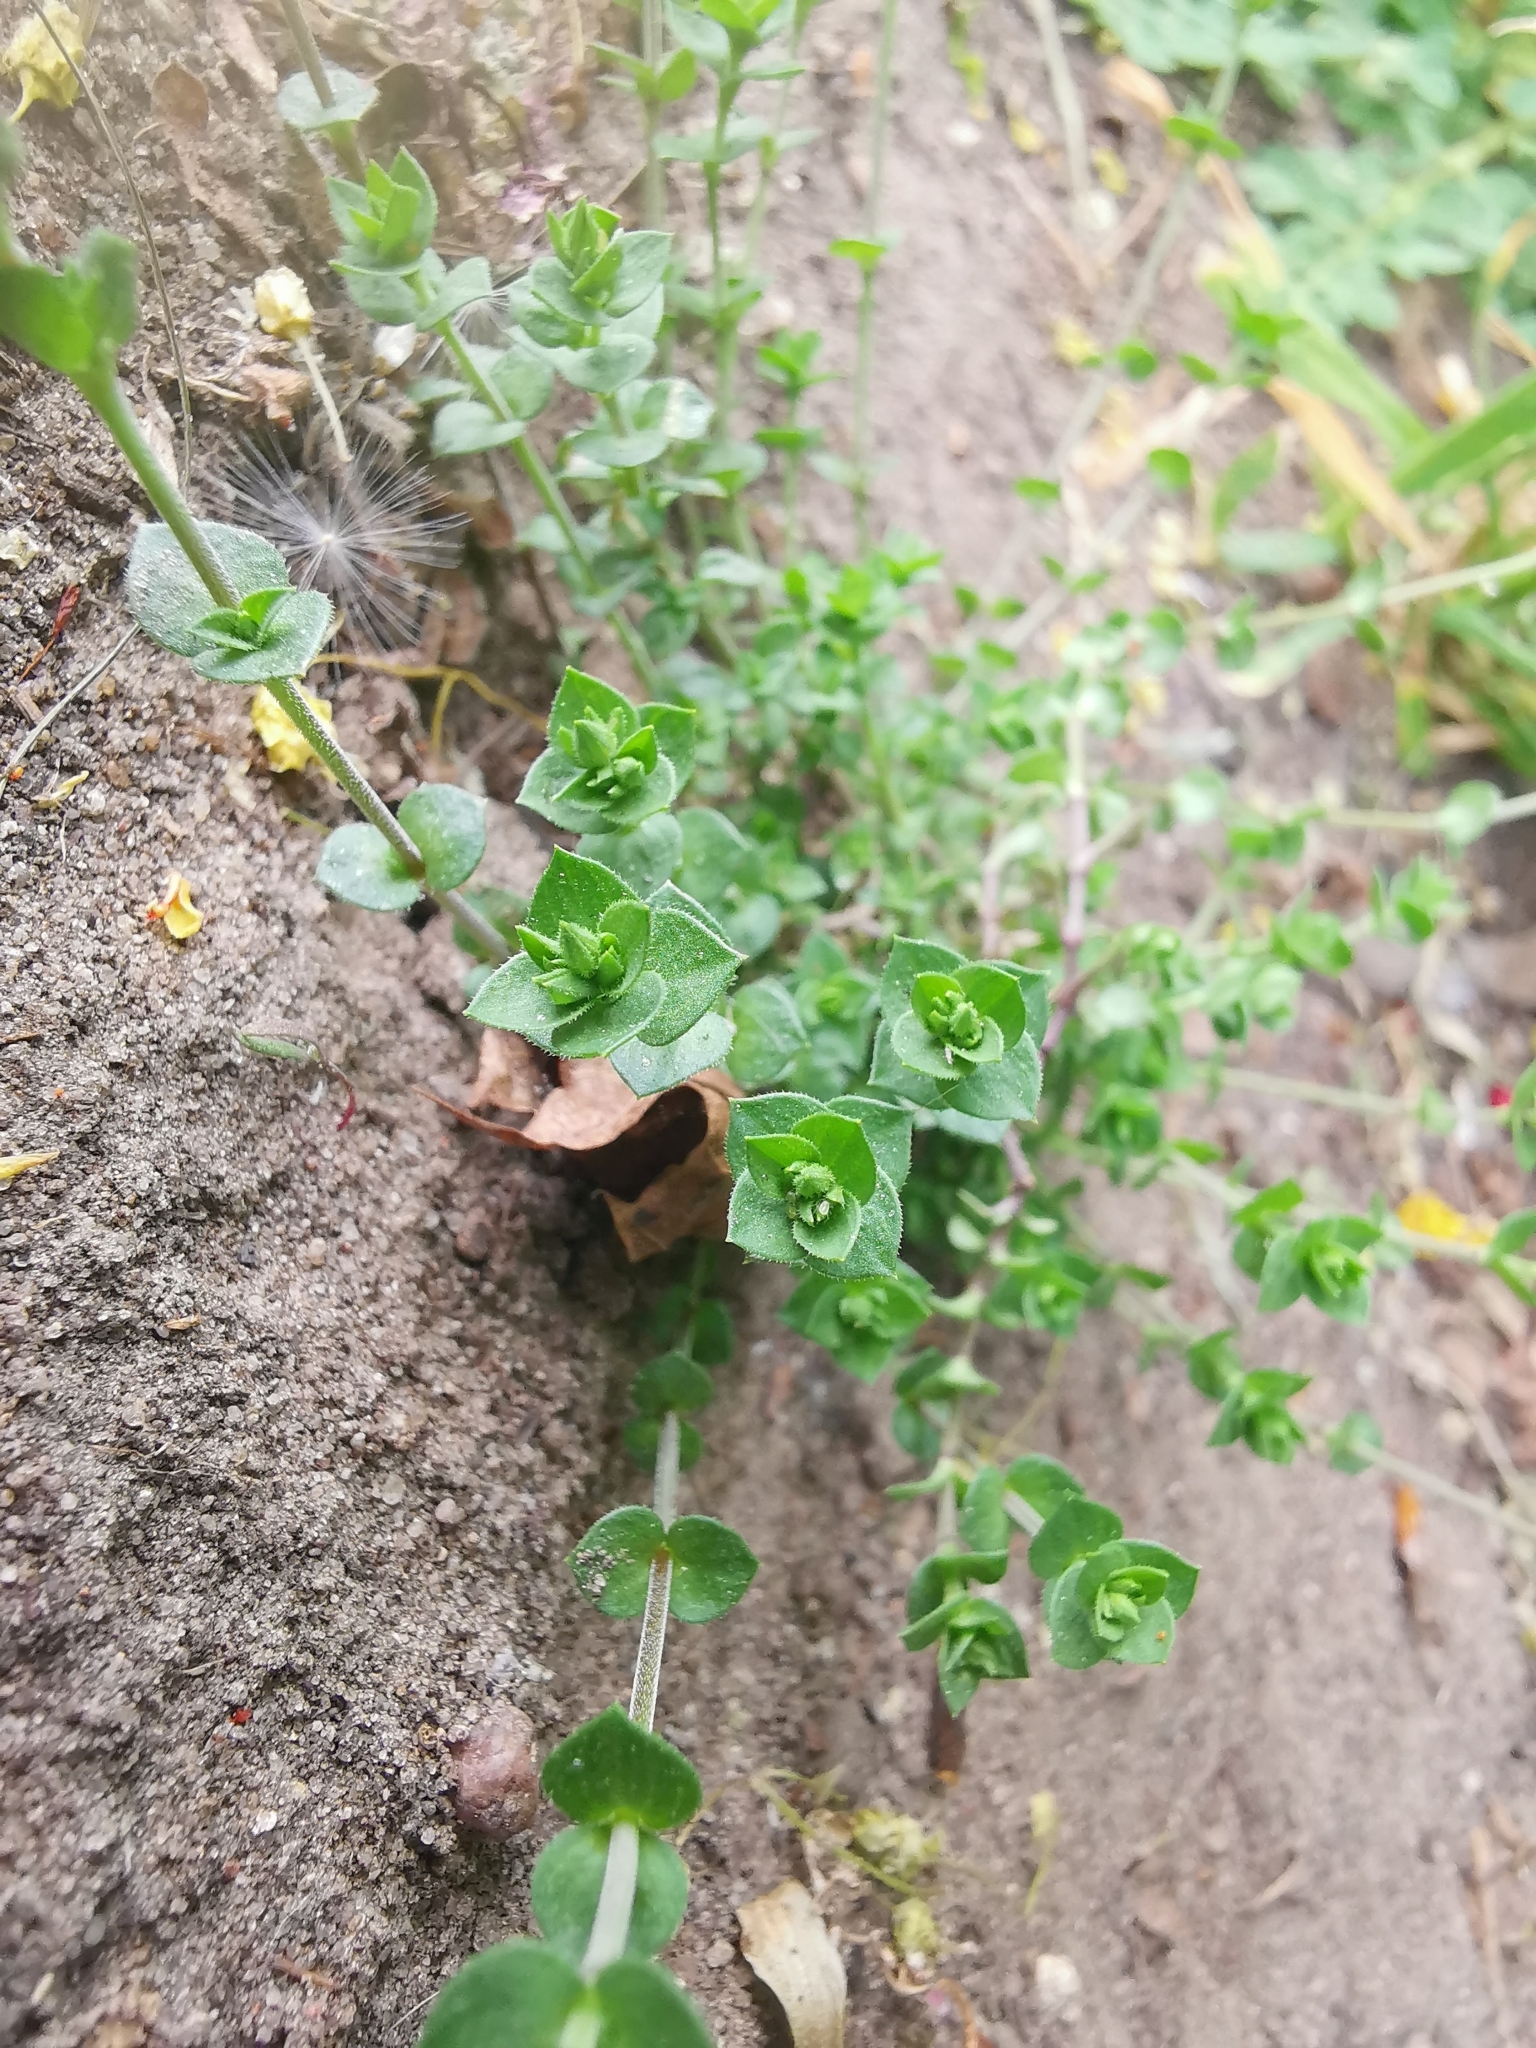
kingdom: Plantae
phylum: Tracheophyta
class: Magnoliopsida
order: Caryophyllales
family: Caryophyllaceae
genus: Arenaria
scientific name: Arenaria serpyllifolia
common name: Thyme-leaved sandwort
